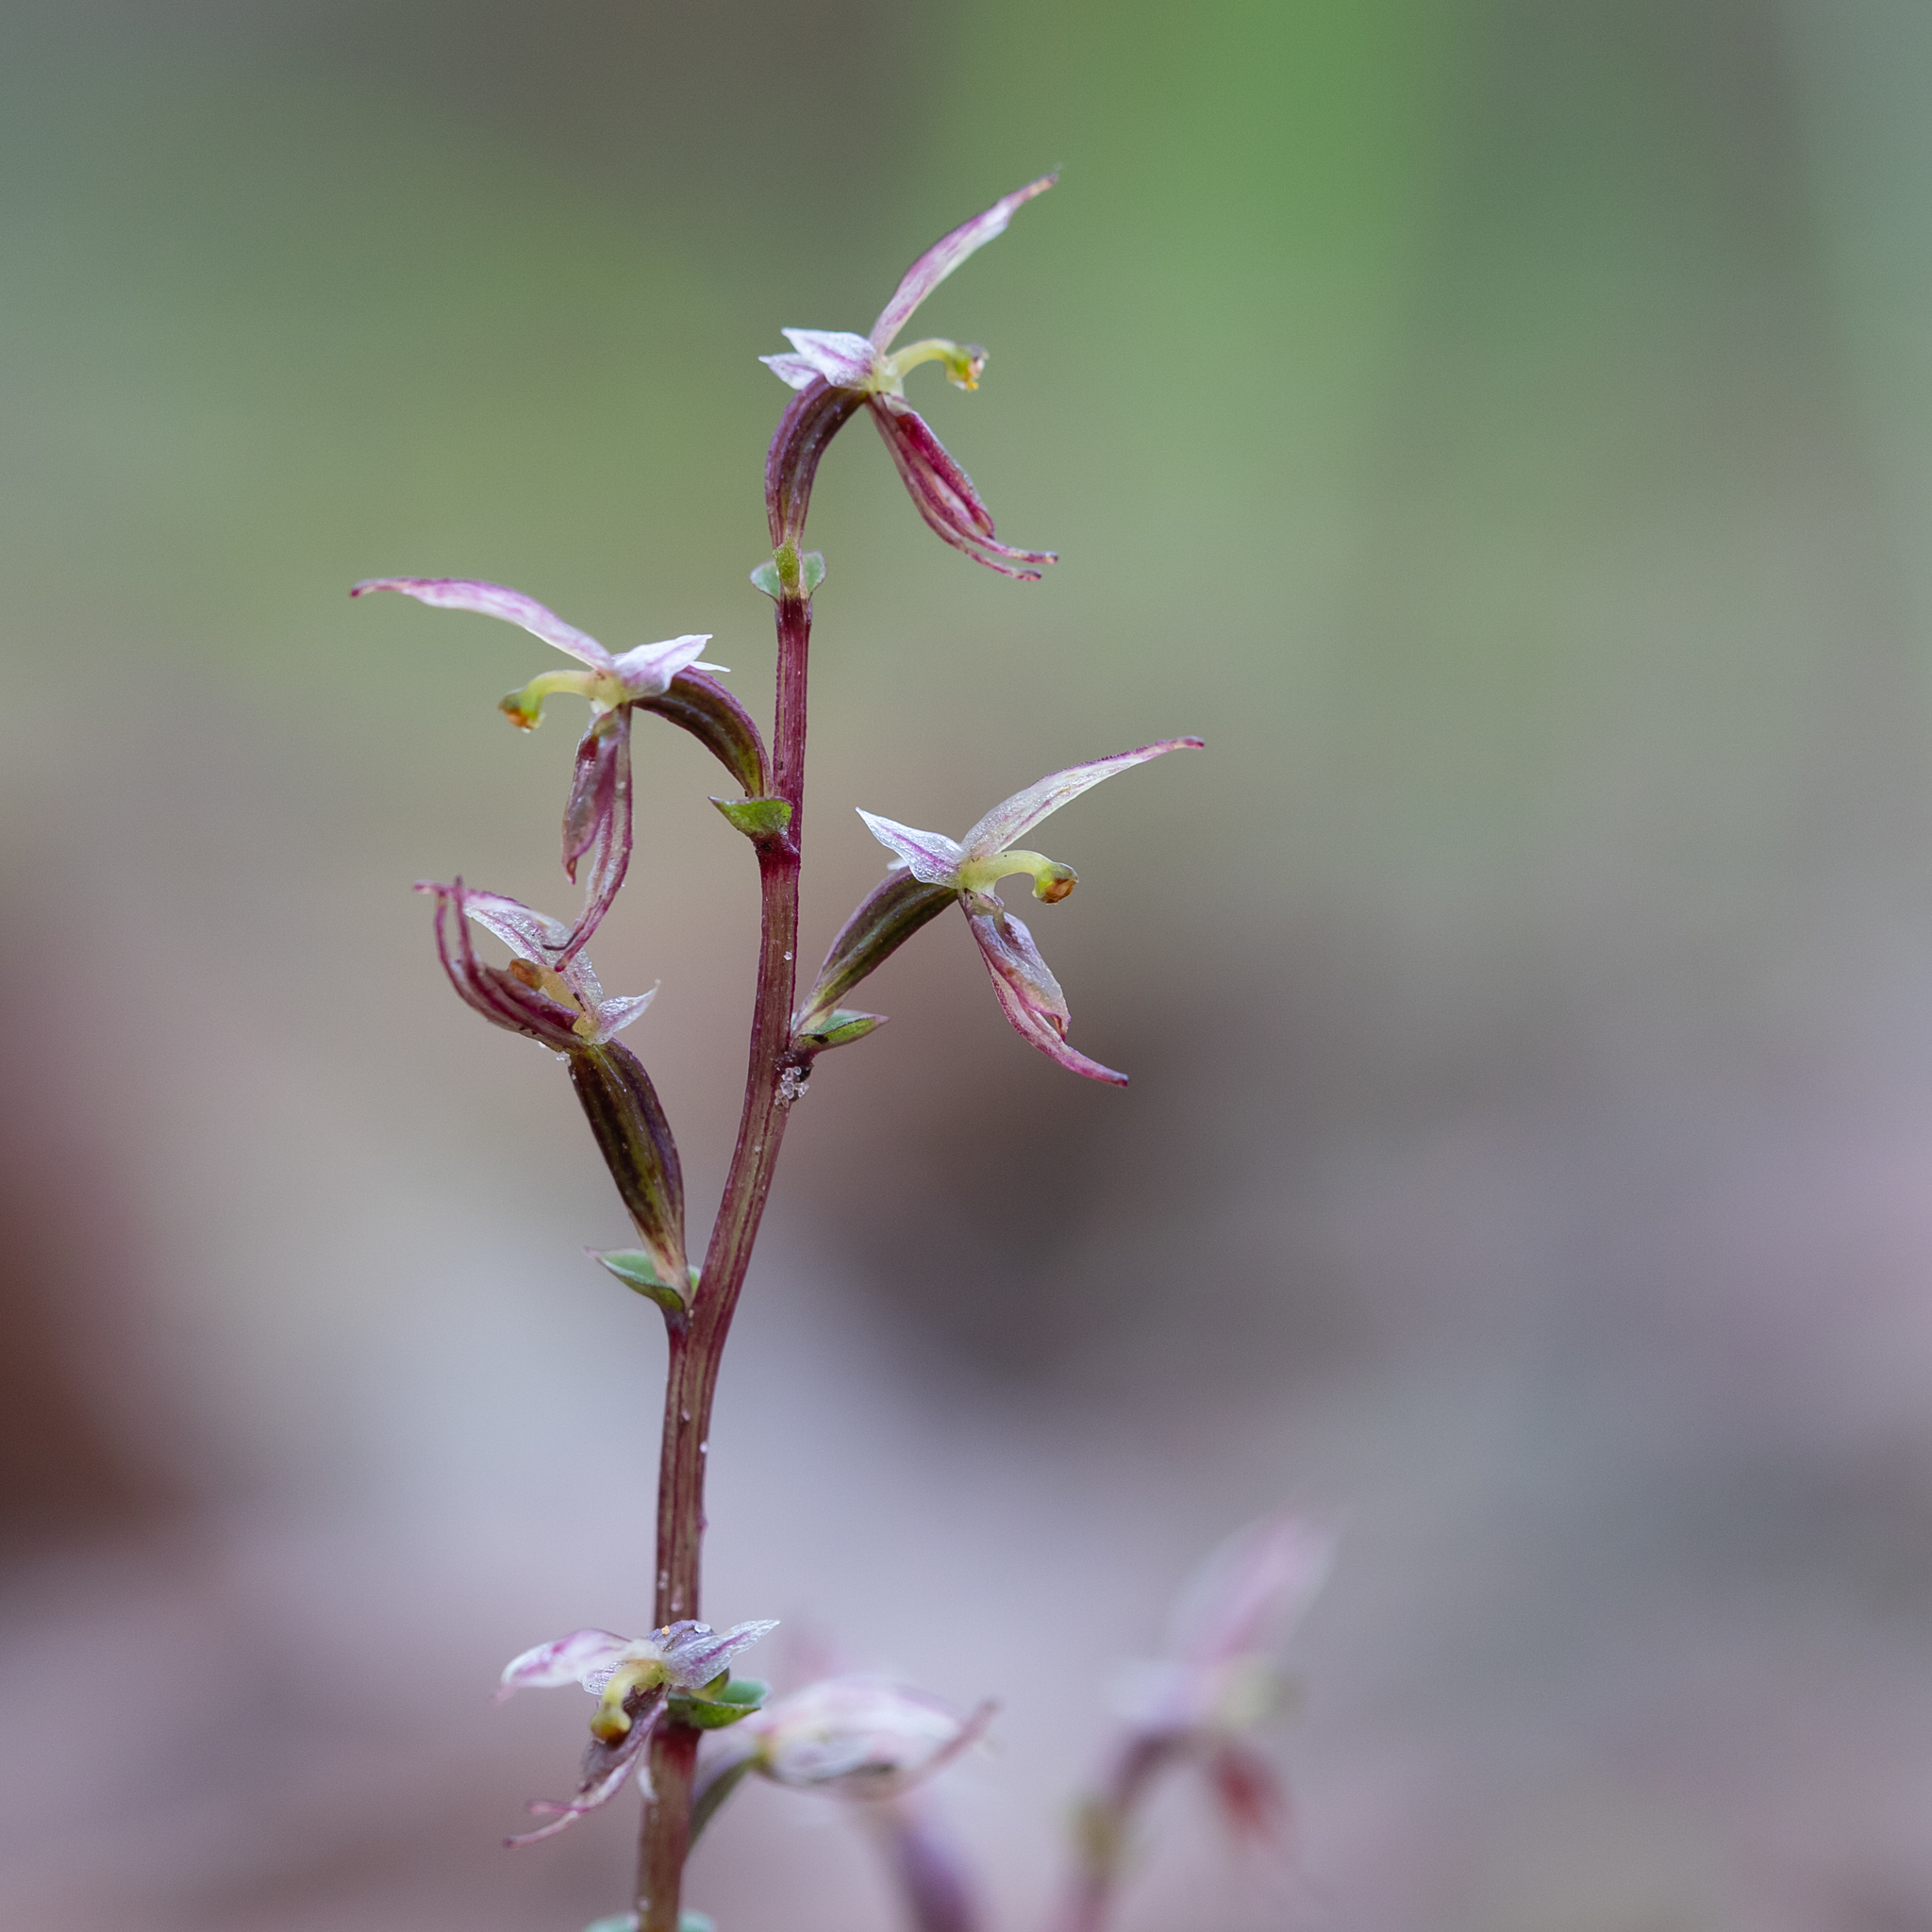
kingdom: Plantae
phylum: Tracheophyta
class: Liliopsida
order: Asparagales
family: Orchidaceae
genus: Acianthus
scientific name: Acianthus pusillus
